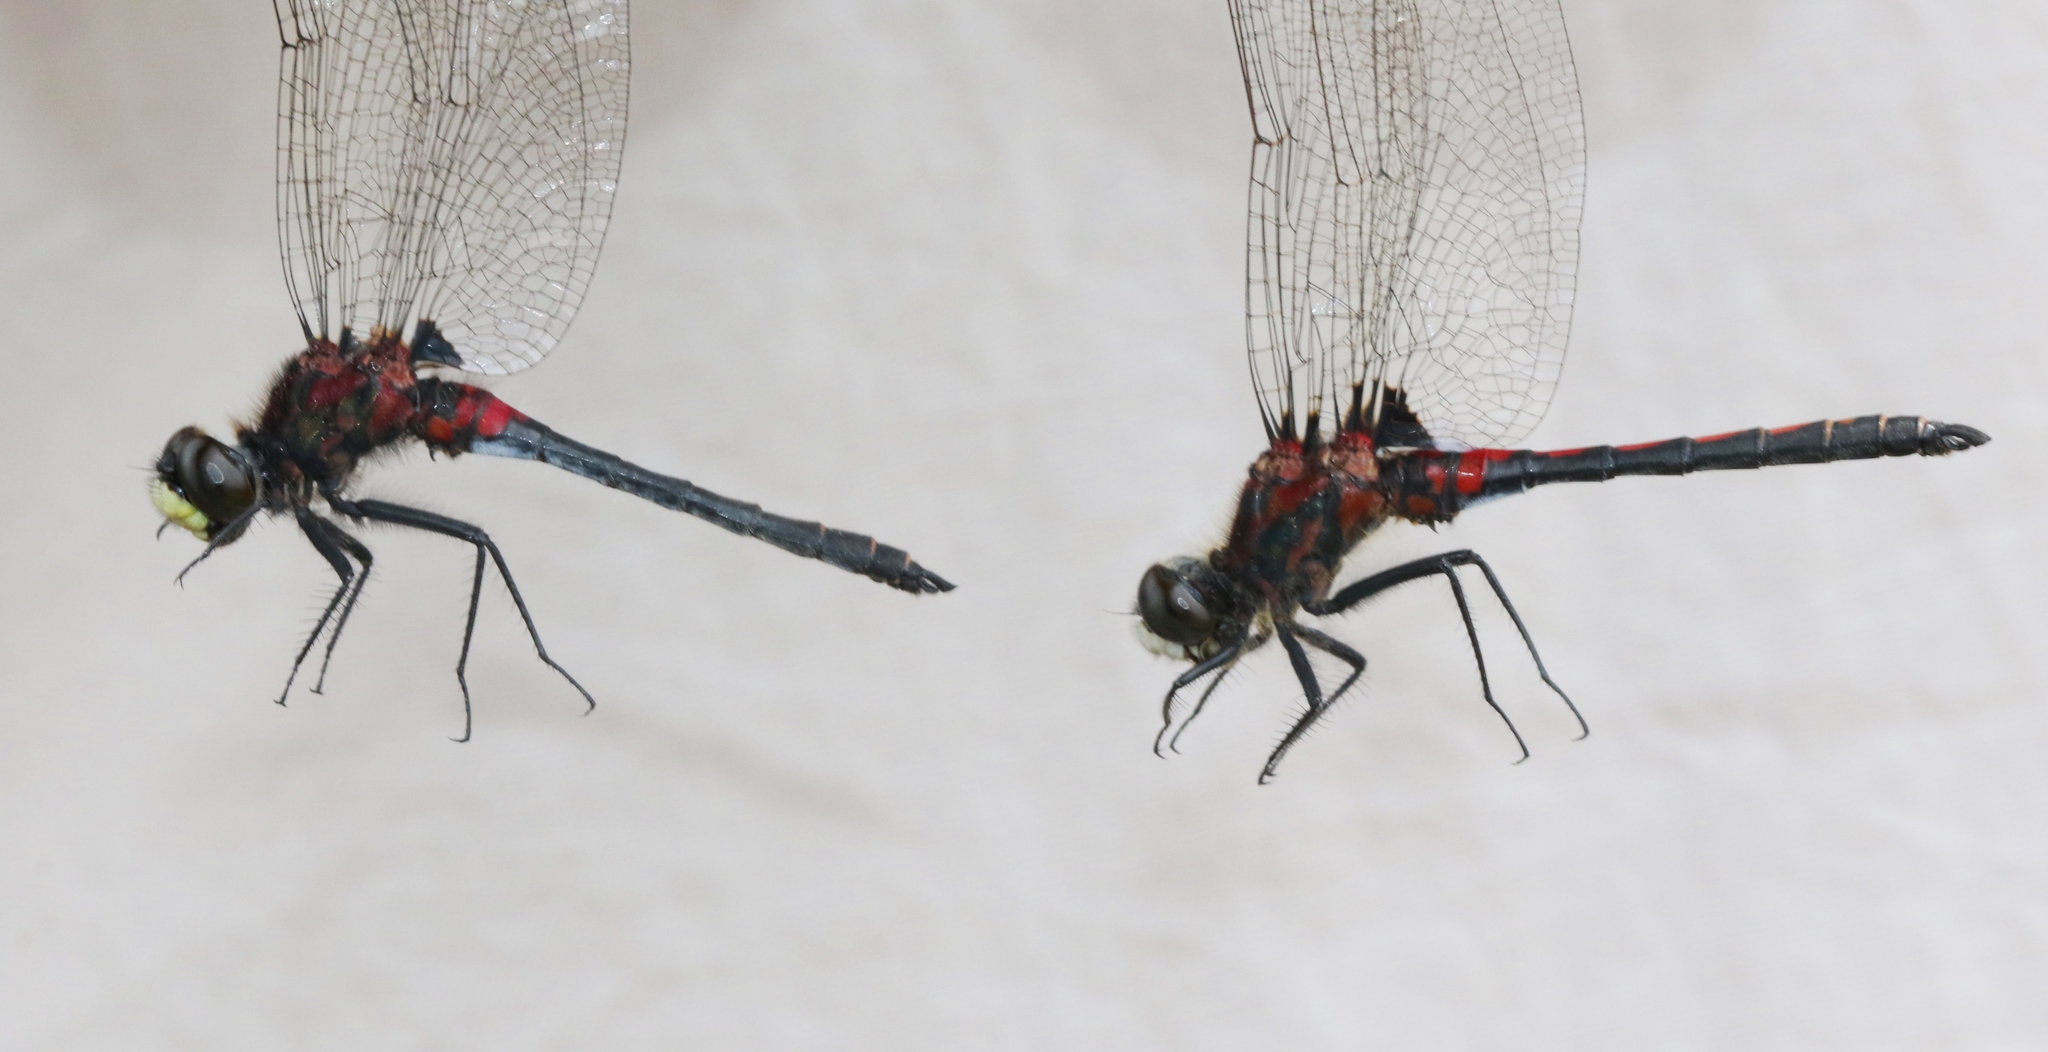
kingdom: Animalia
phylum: Arthropoda
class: Insecta
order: Odonata
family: Libellulidae
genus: Leucorrhinia
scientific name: Leucorrhinia
